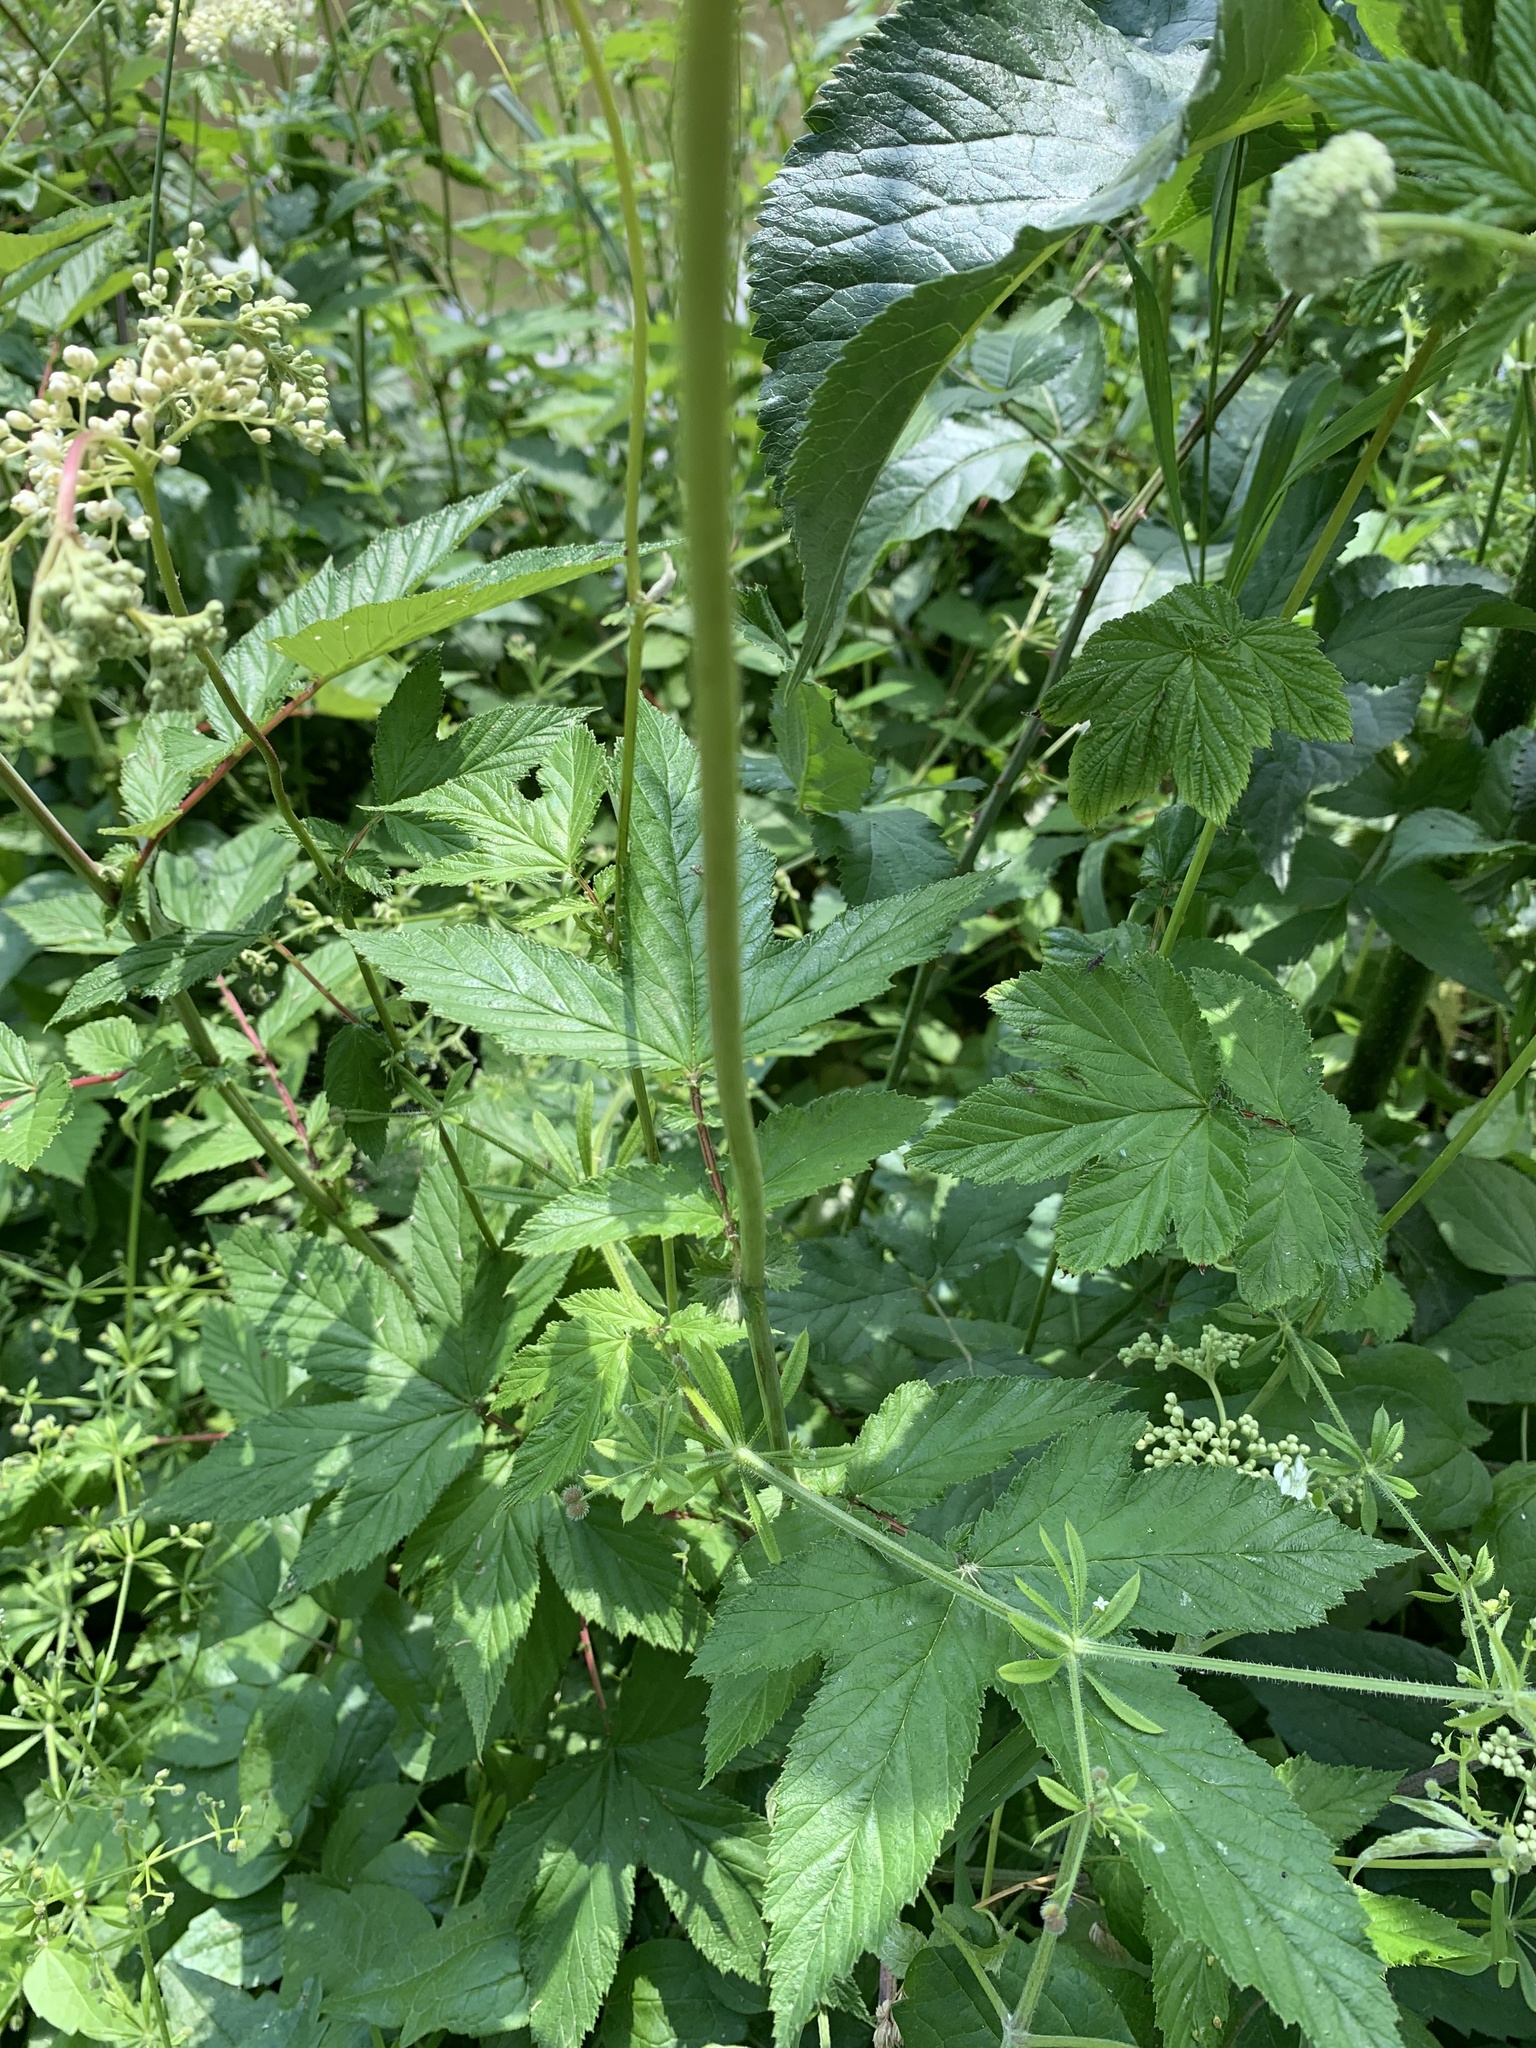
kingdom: Plantae
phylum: Tracheophyta
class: Magnoliopsida
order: Rosales
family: Rosaceae
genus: Filipendula
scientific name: Filipendula ulmaria
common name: Meadowsweet
